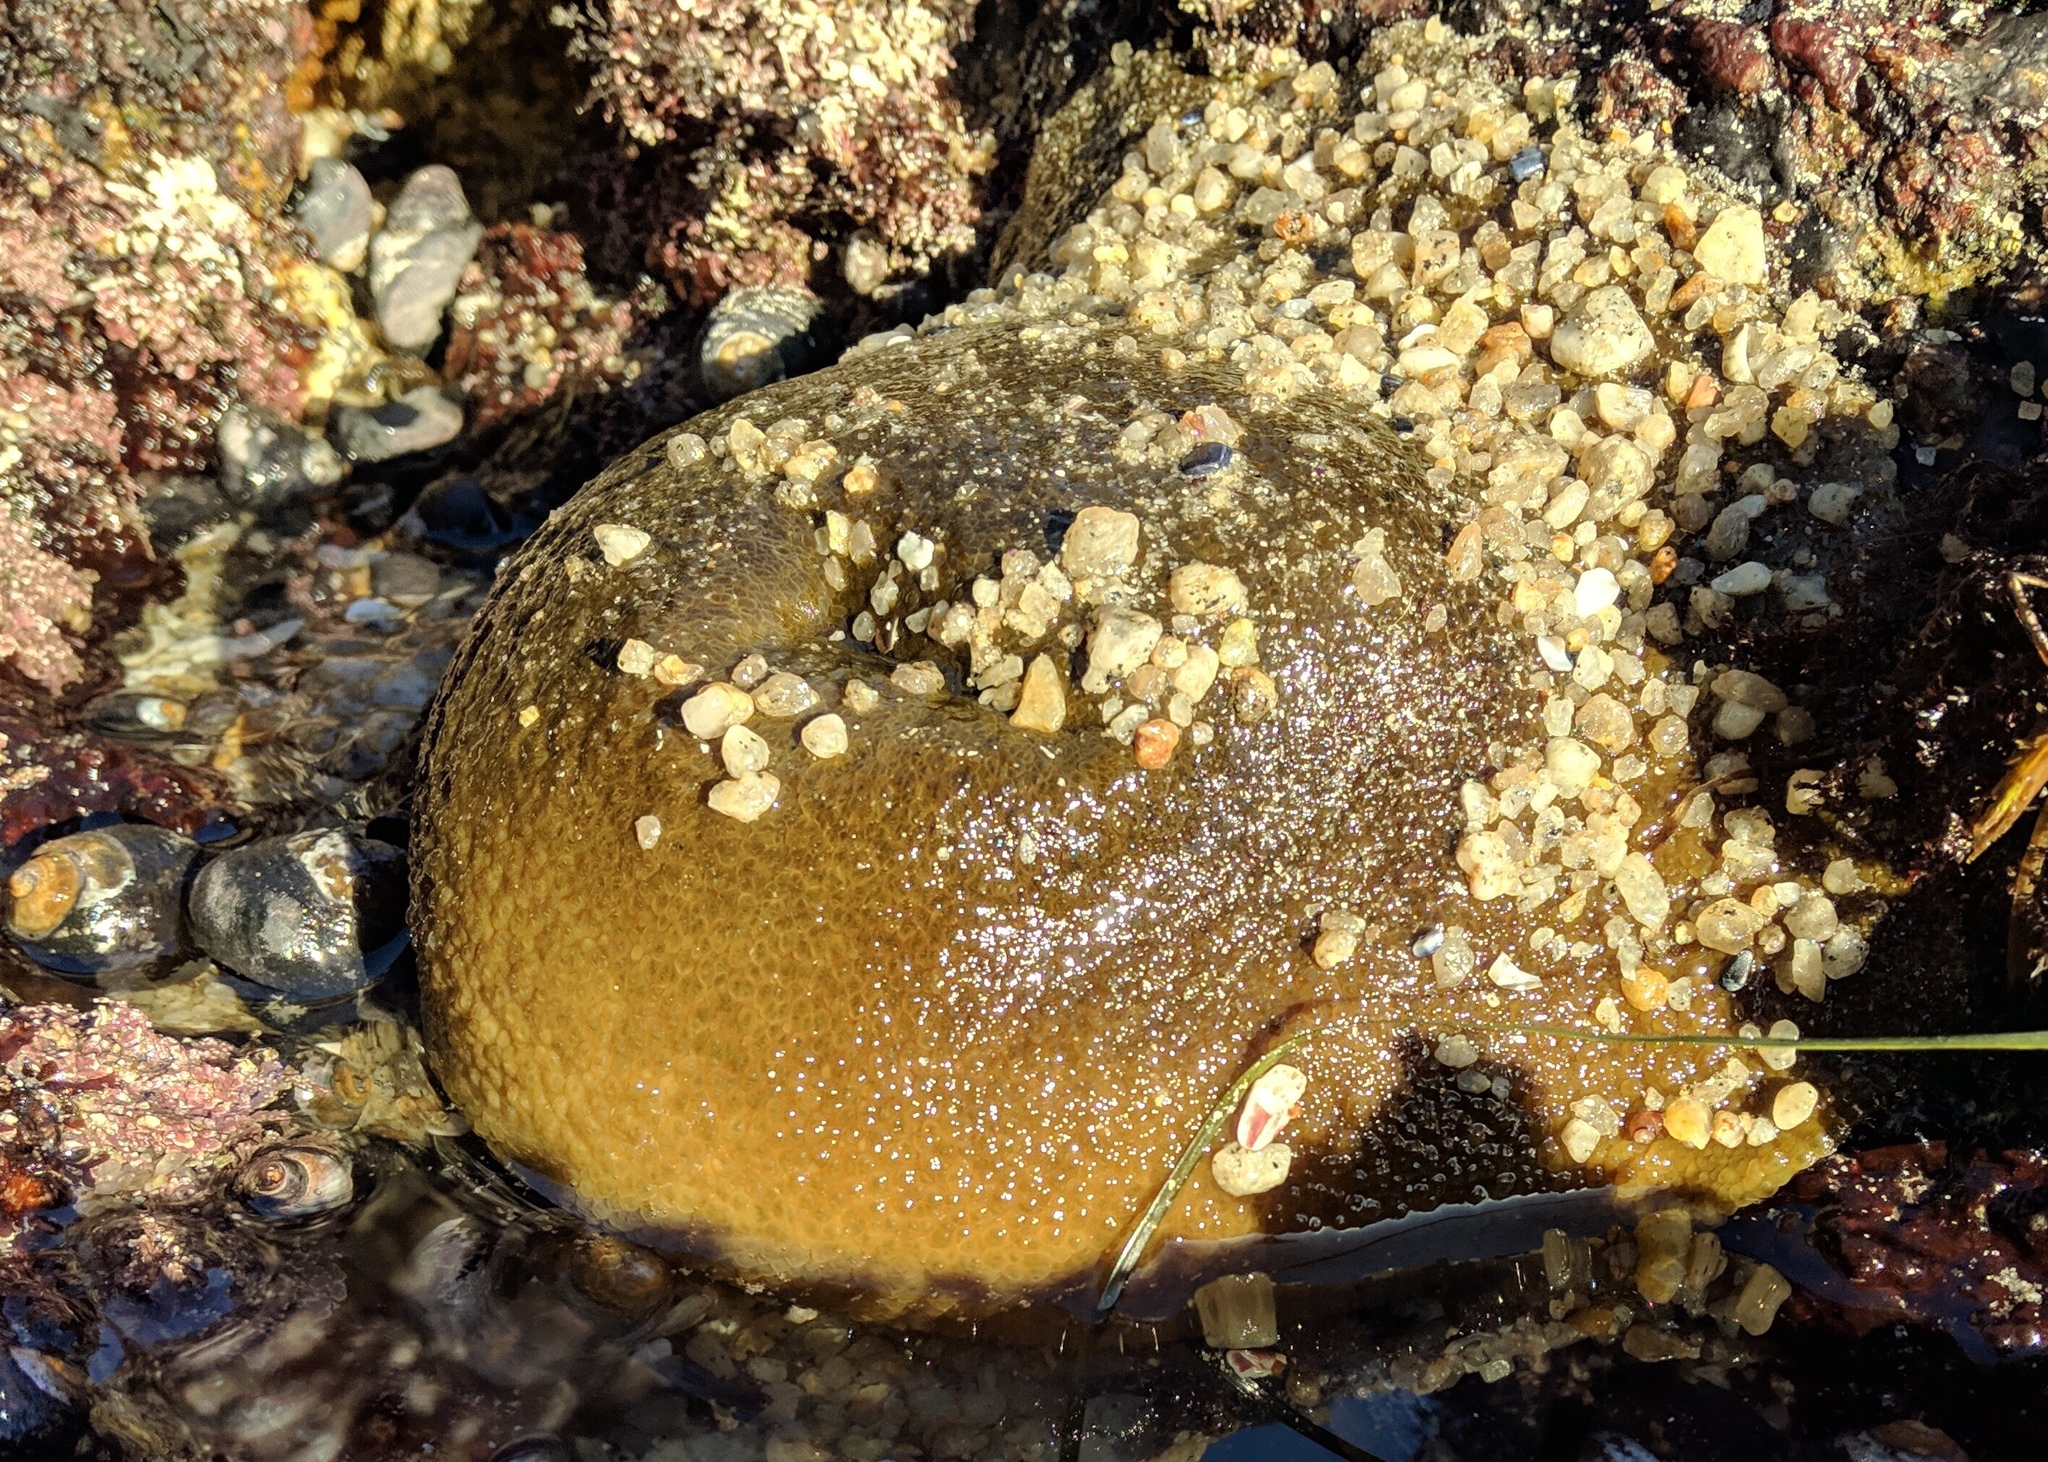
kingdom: Animalia
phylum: Cnidaria
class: Anthozoa
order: Actiniaria
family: Actiniidae
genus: Anthopleura
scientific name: Anthopleura xanthogrammica
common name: Giant green anemone
